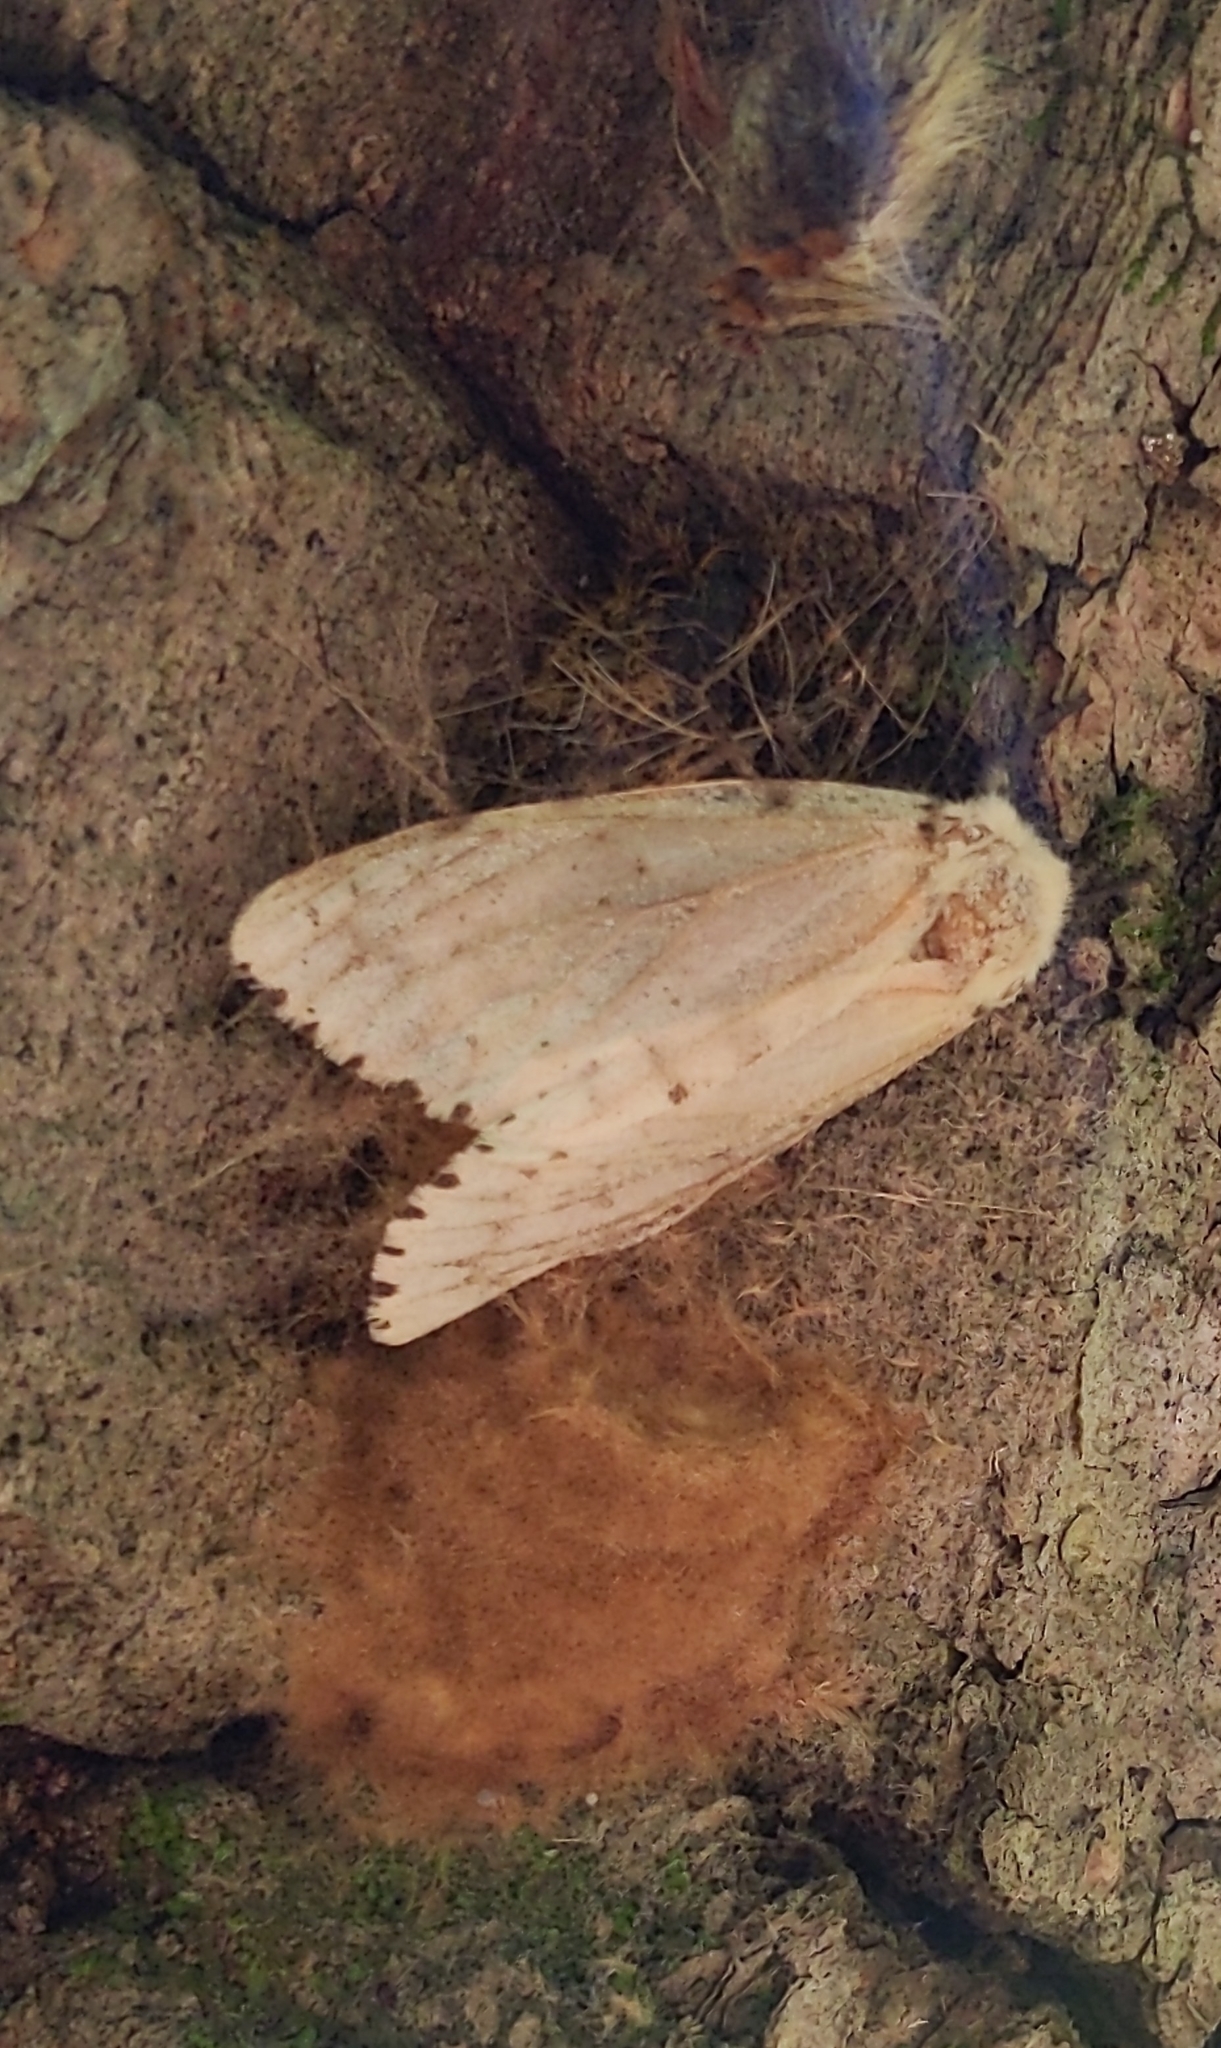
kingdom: Animalia
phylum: Arthropoda
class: Insecta
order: Lepidoptera
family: Erebidae
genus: Lymantria
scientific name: Lymantria dispar
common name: Gypsy moth
